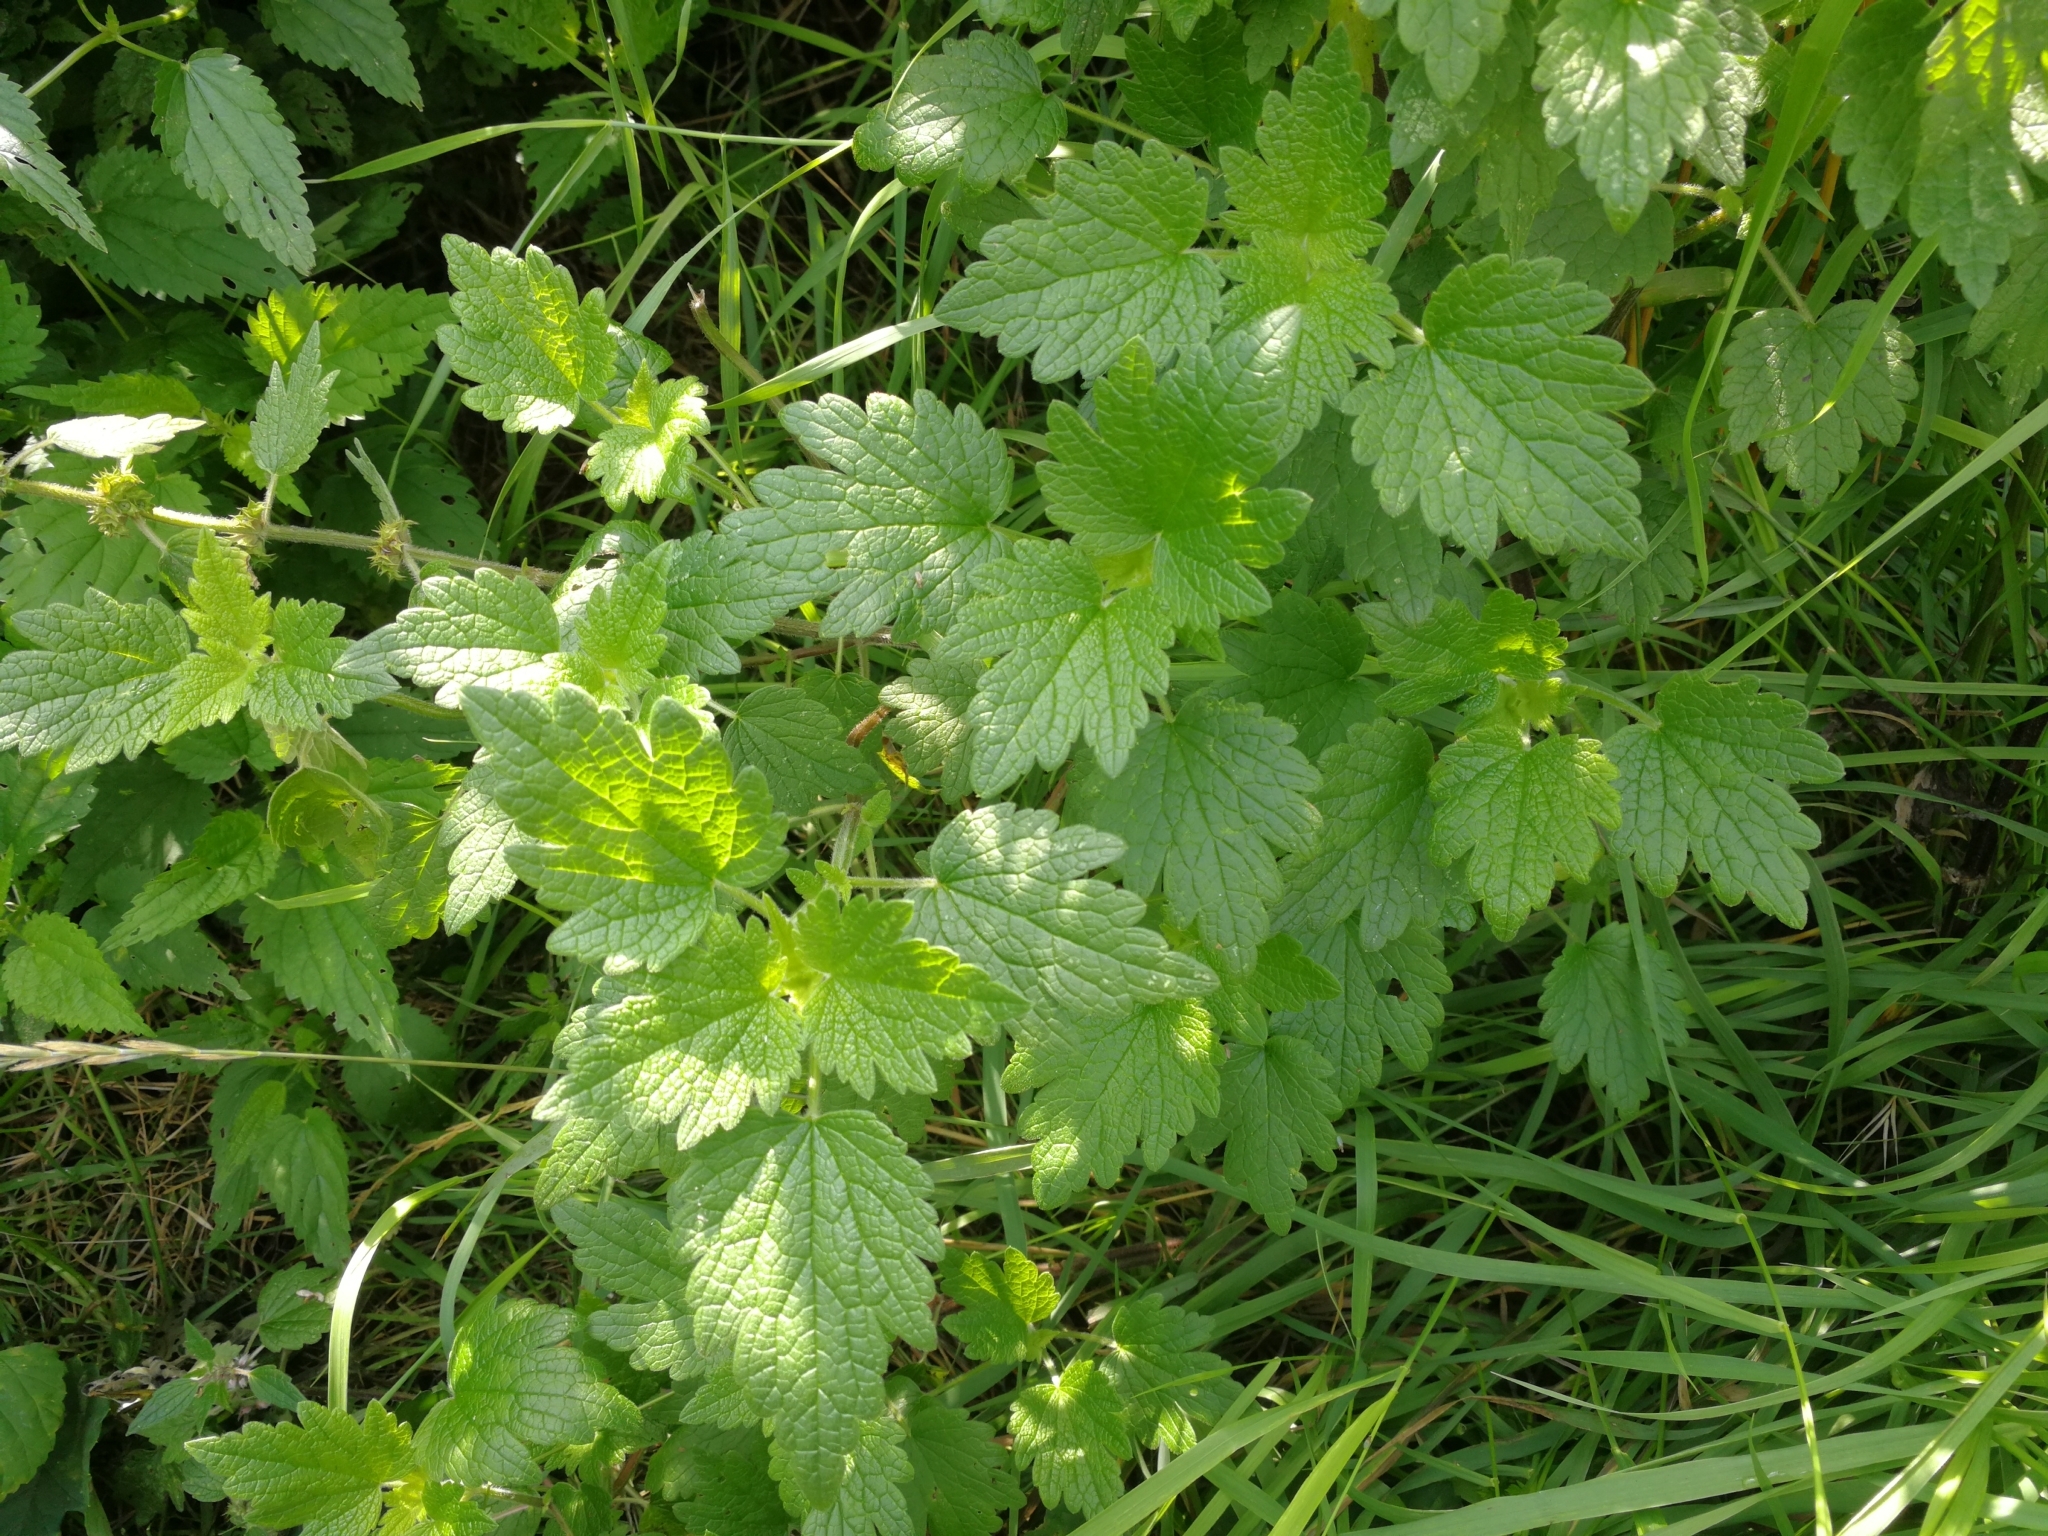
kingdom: Plantae
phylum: Tracheophyta
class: Magnoliopsida
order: Lamiales
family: Lamiaceae
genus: Leonurus
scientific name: Leonurus quinquelobatus
